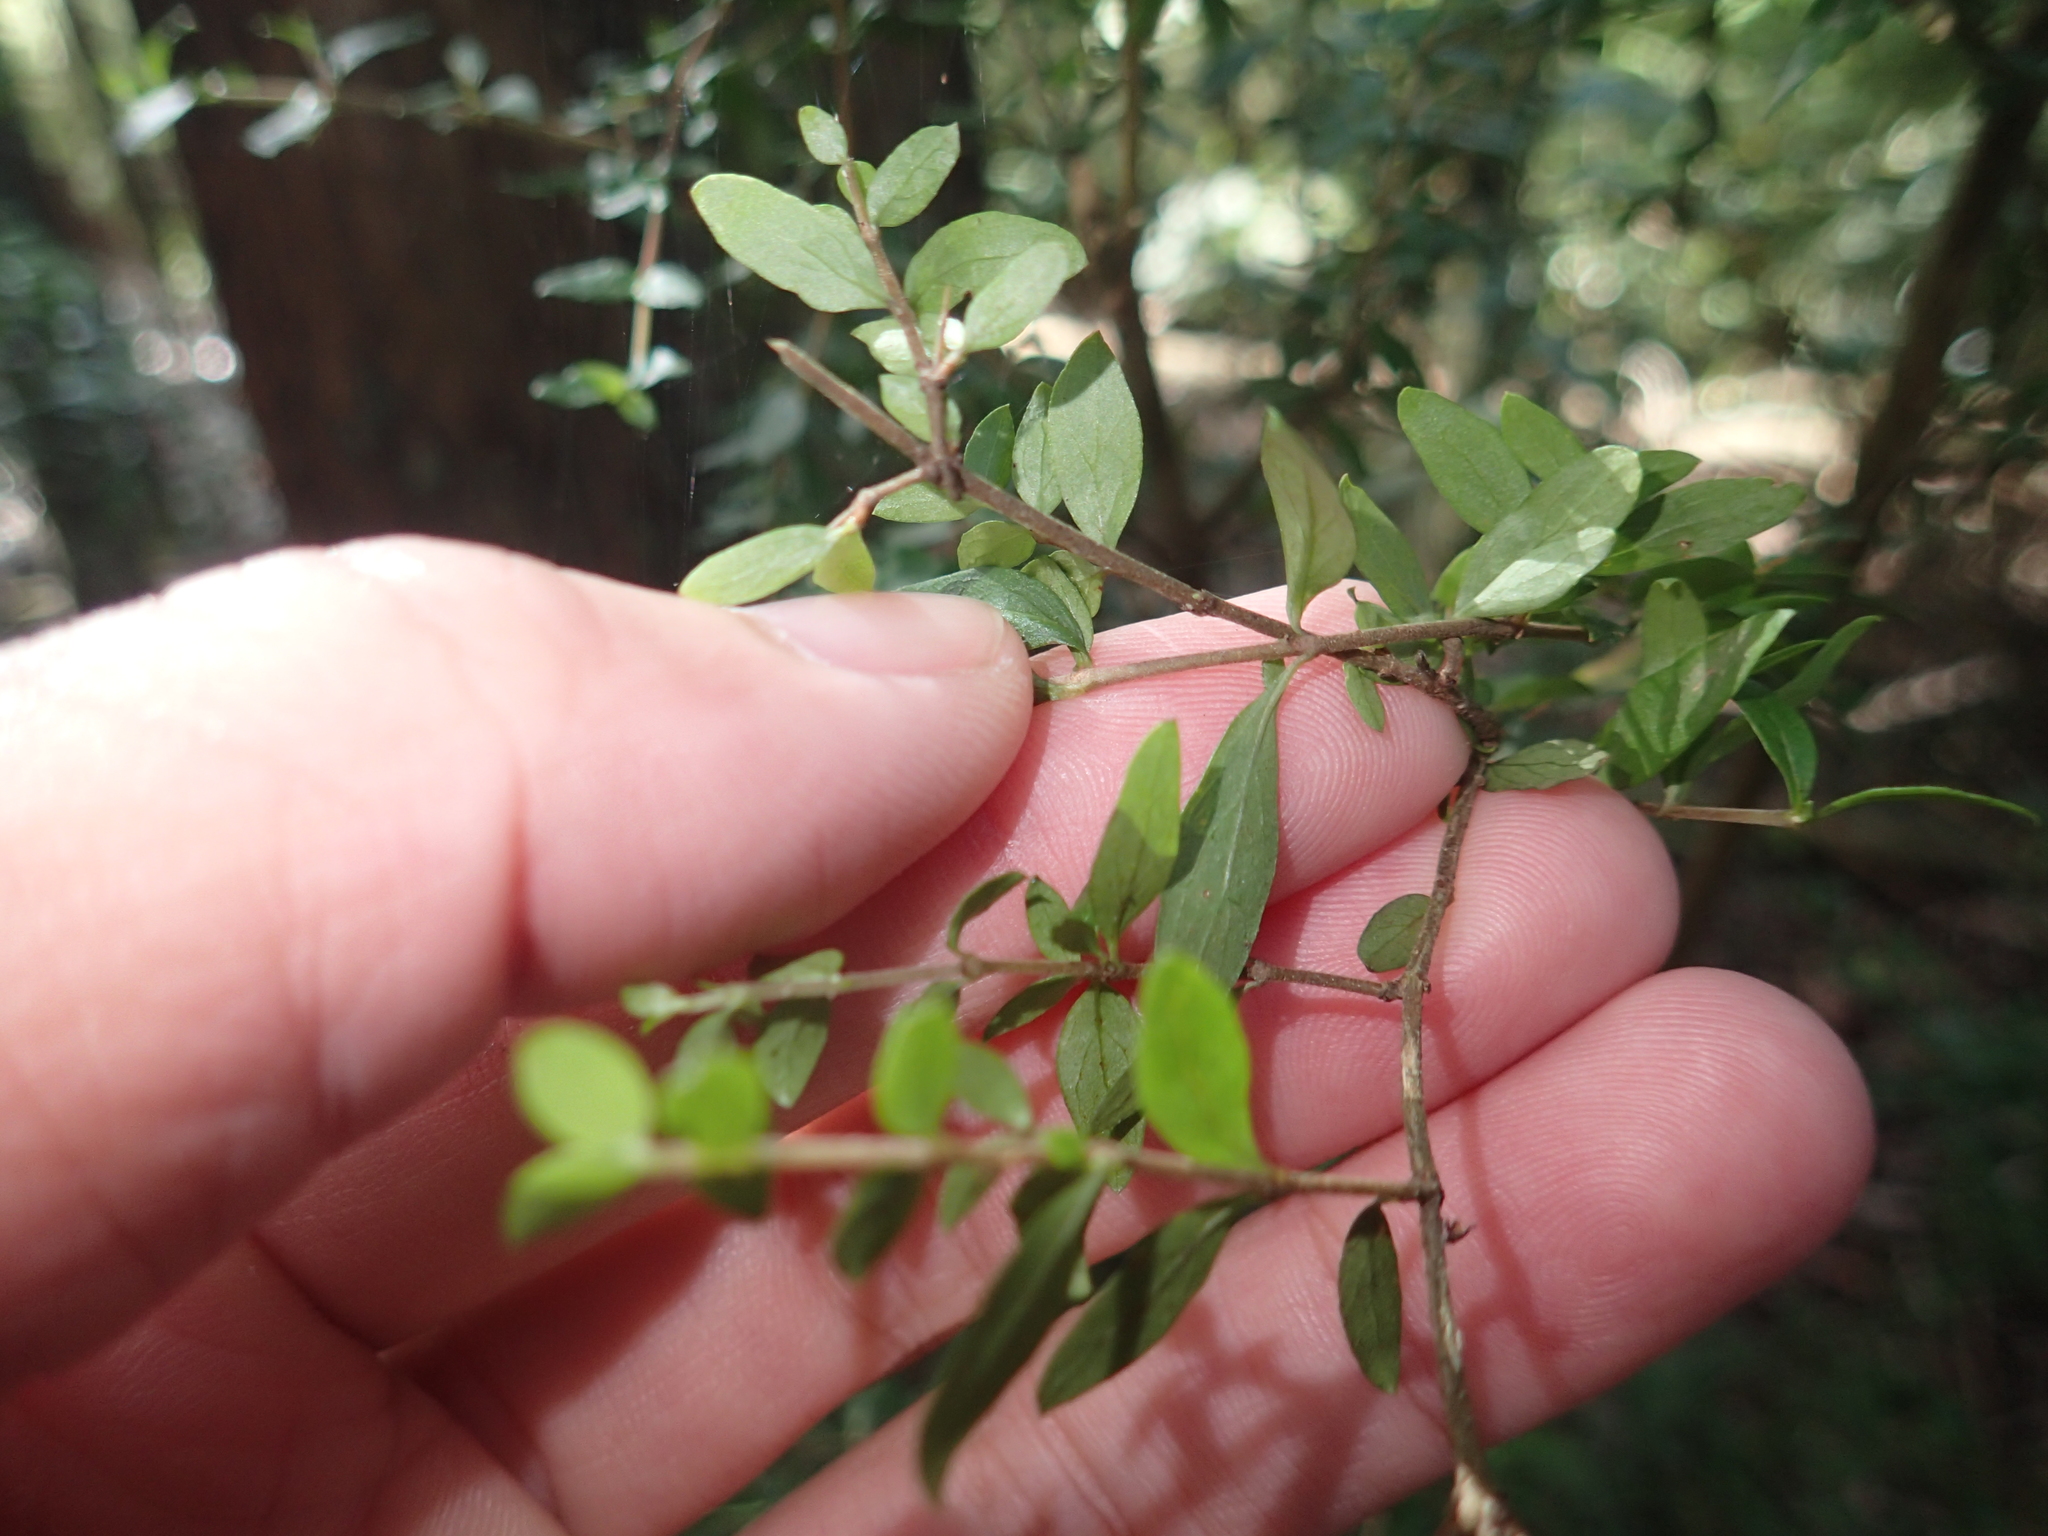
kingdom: Plantae
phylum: Tracheophyta
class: Magnoliopsida
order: Gentianales
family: Rubiaceae
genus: Coprosma
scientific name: Coprosma quadrifida
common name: Prickly currantbush
